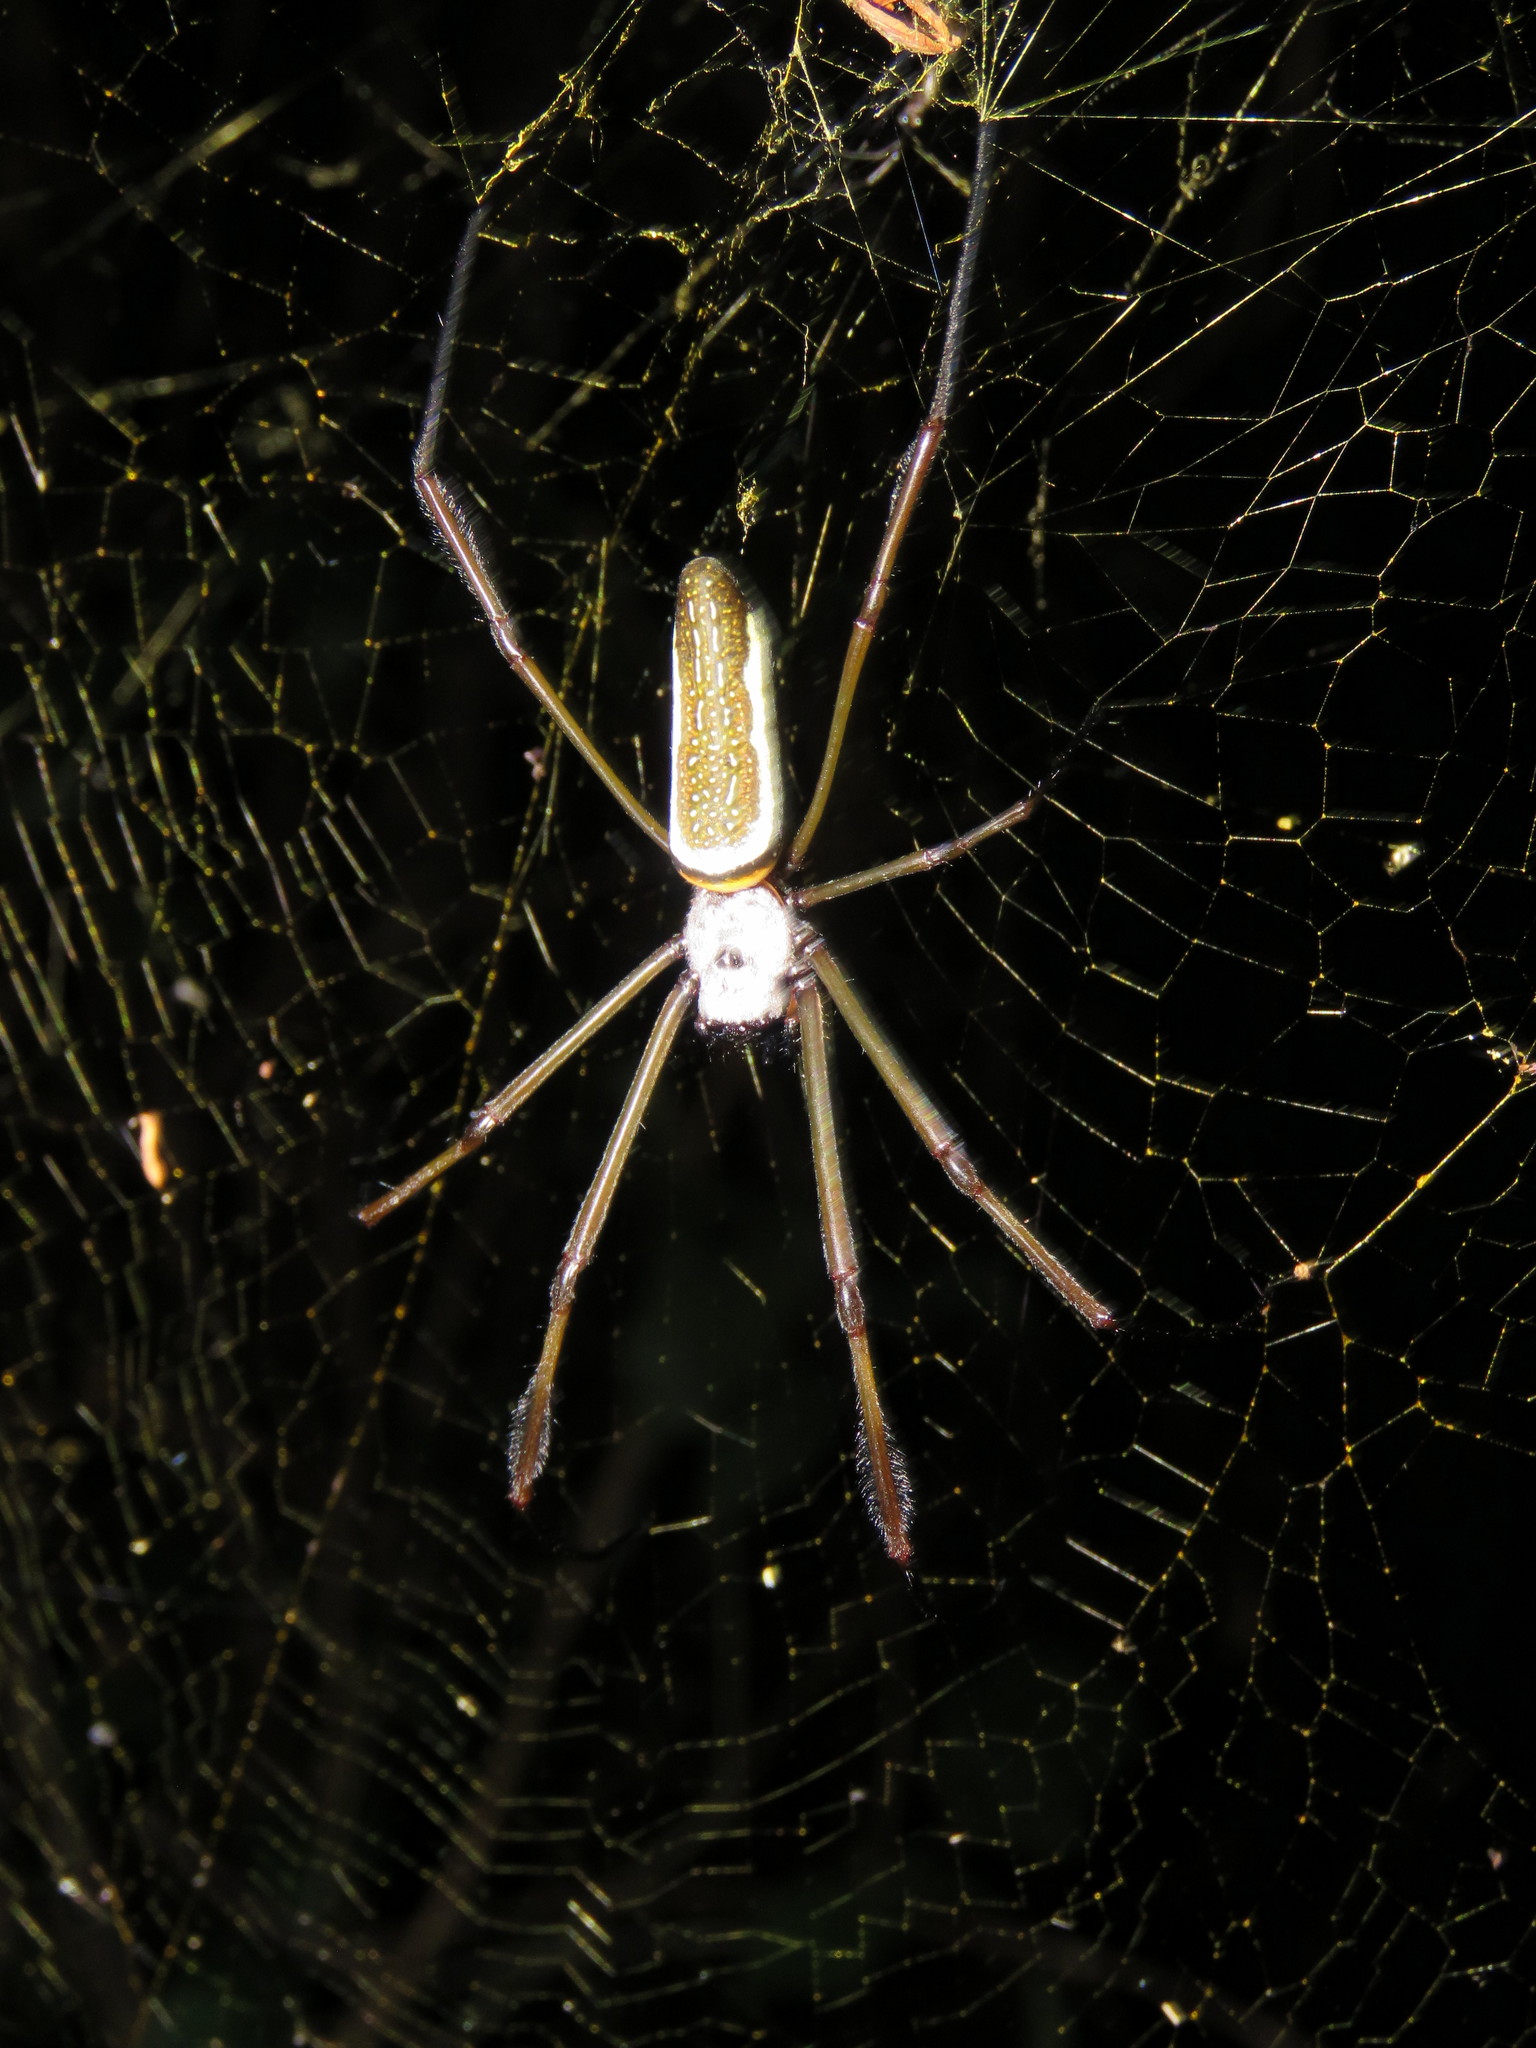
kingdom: Animalia
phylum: Arthropoda
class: Arachnida
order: Araneae
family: Araneidae
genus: Trichonephila
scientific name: Trichonephila clavipes
